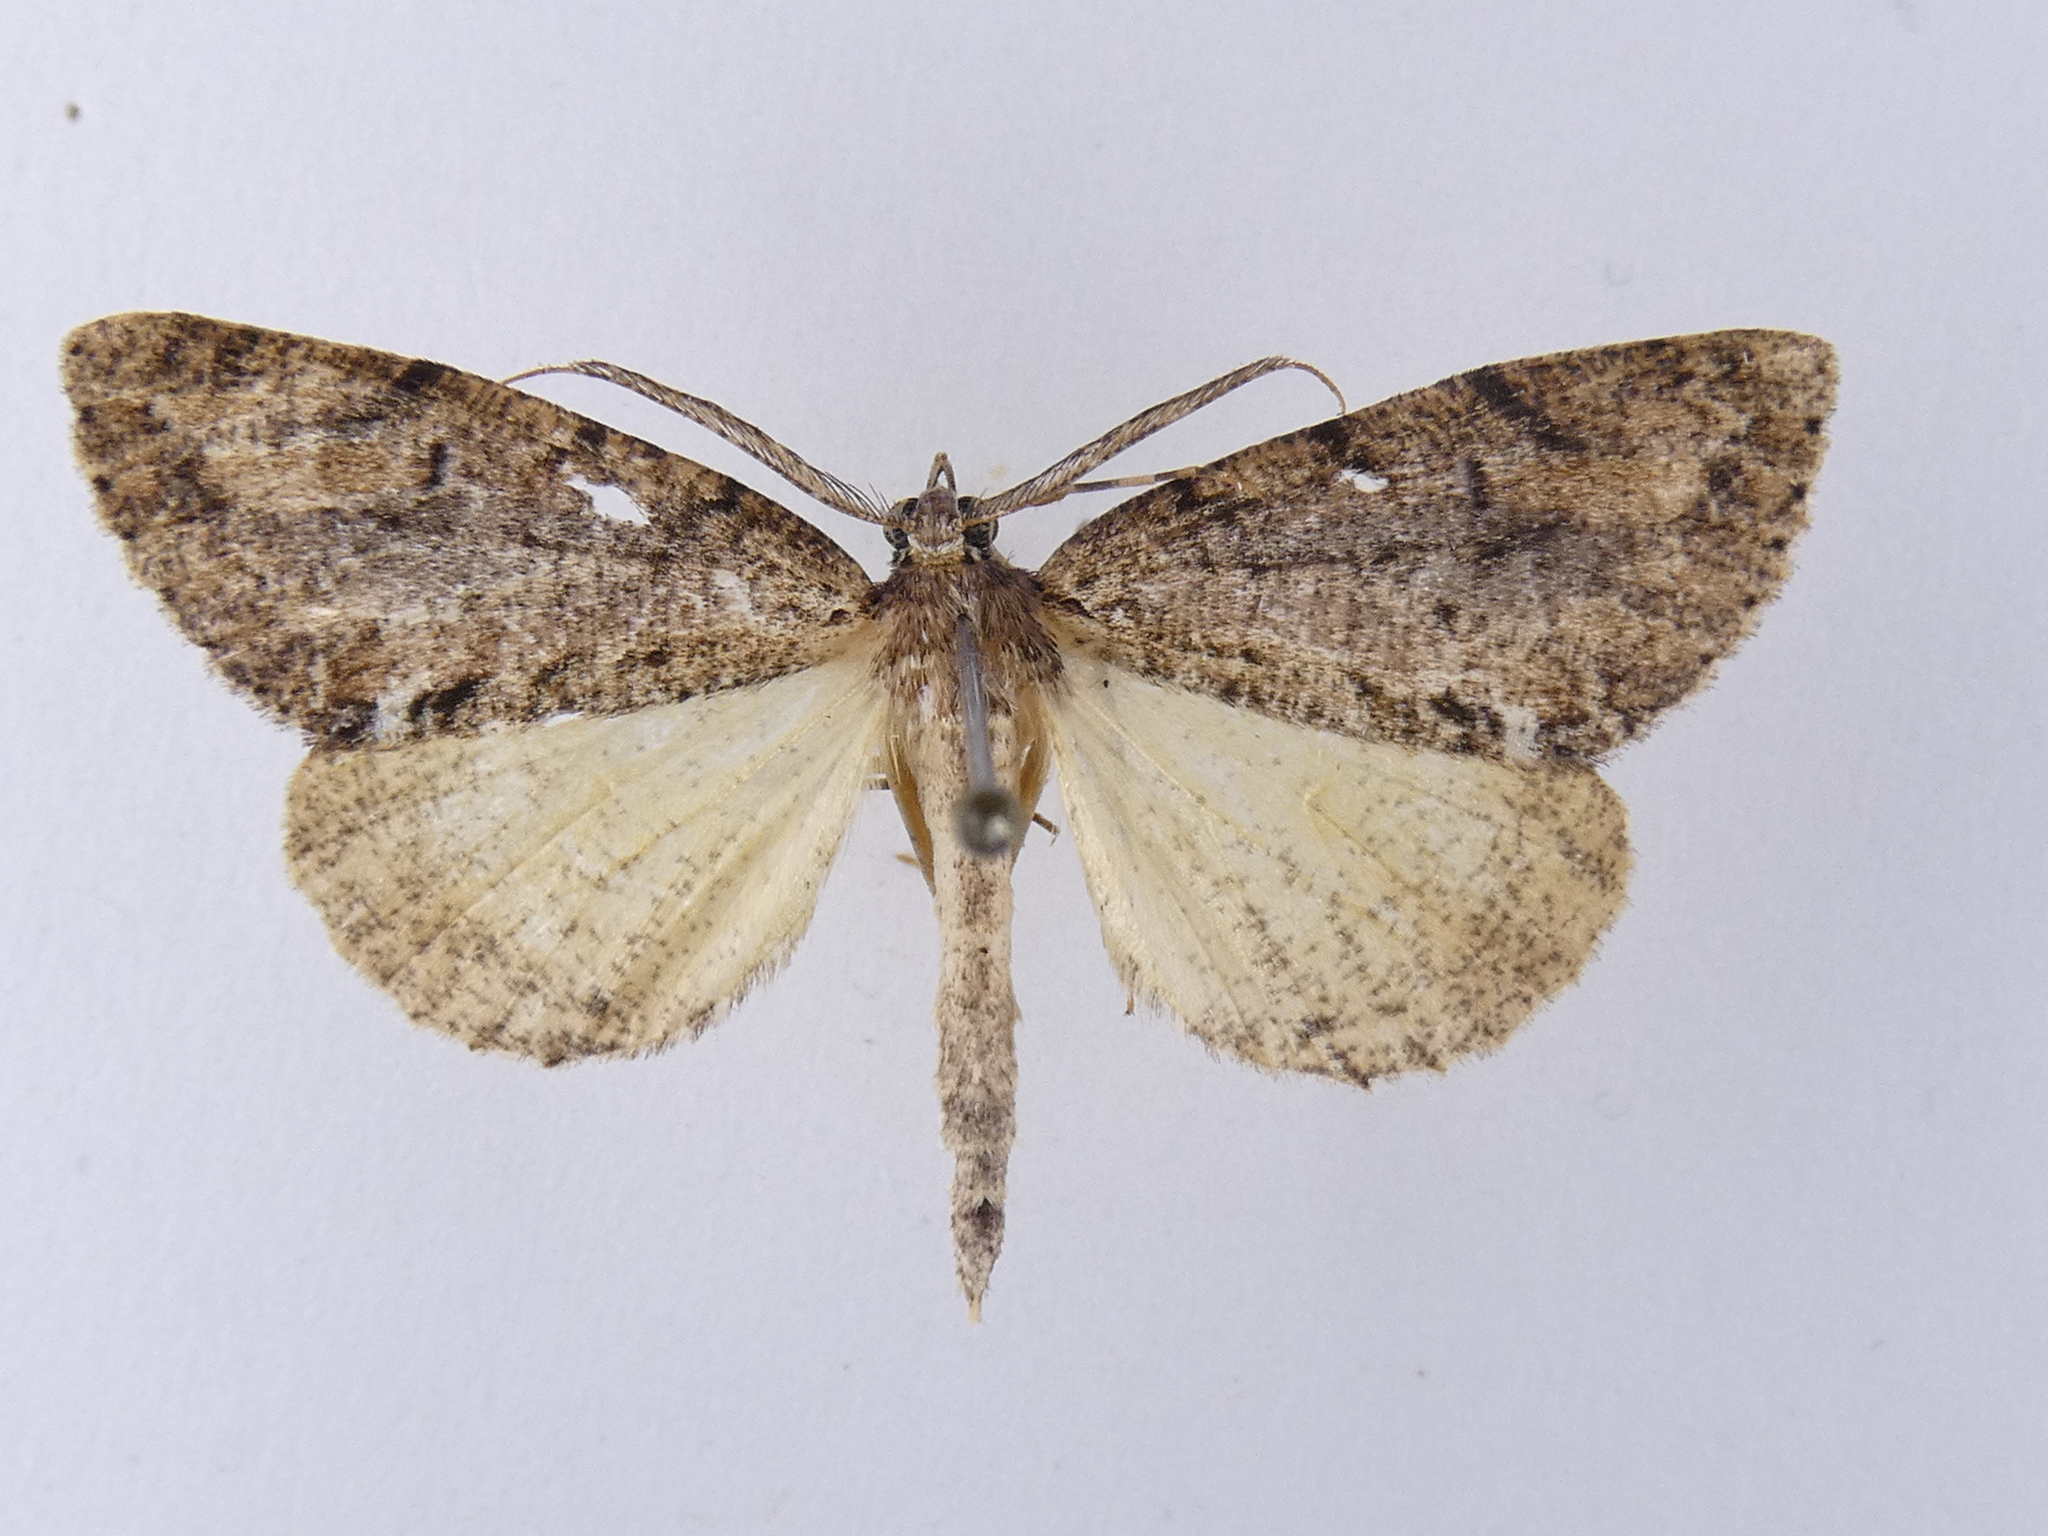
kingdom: Animalia
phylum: Arthropoda
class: Insecta
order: Lepidoptera
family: Geometridae
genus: Pseudocoremia
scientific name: Pseudocoremia suavis
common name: Common forest looper
